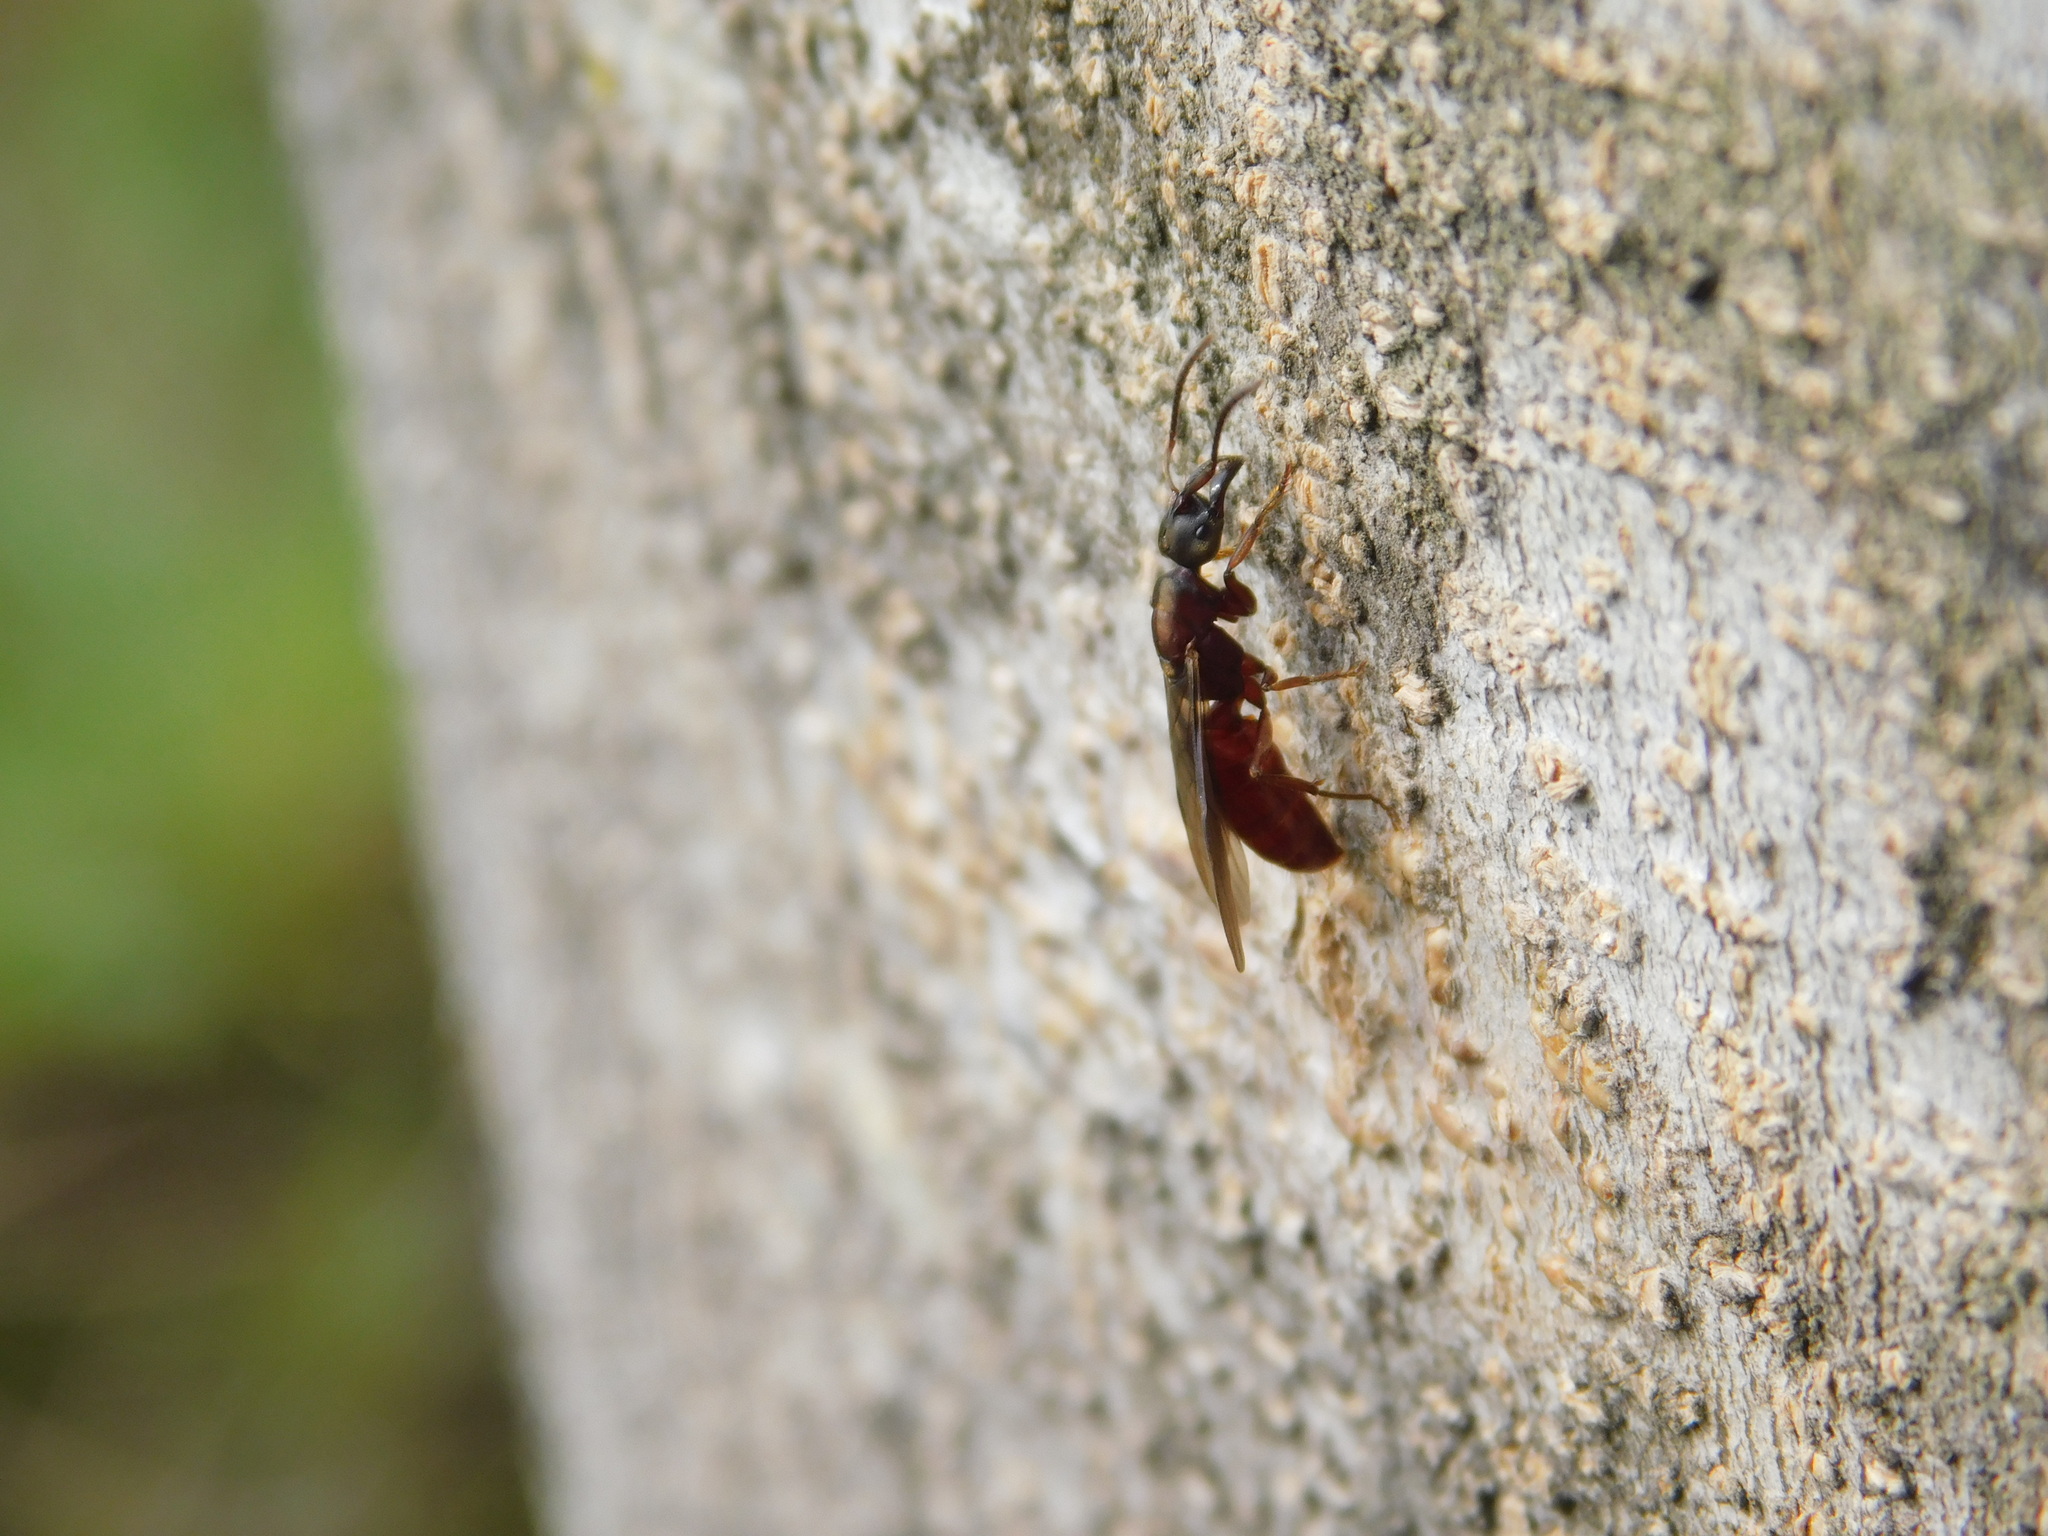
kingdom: Animalia
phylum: Arthropoda
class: Insecta
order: Hymenoptera
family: Formicidae
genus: Buniapone
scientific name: Buniapone
